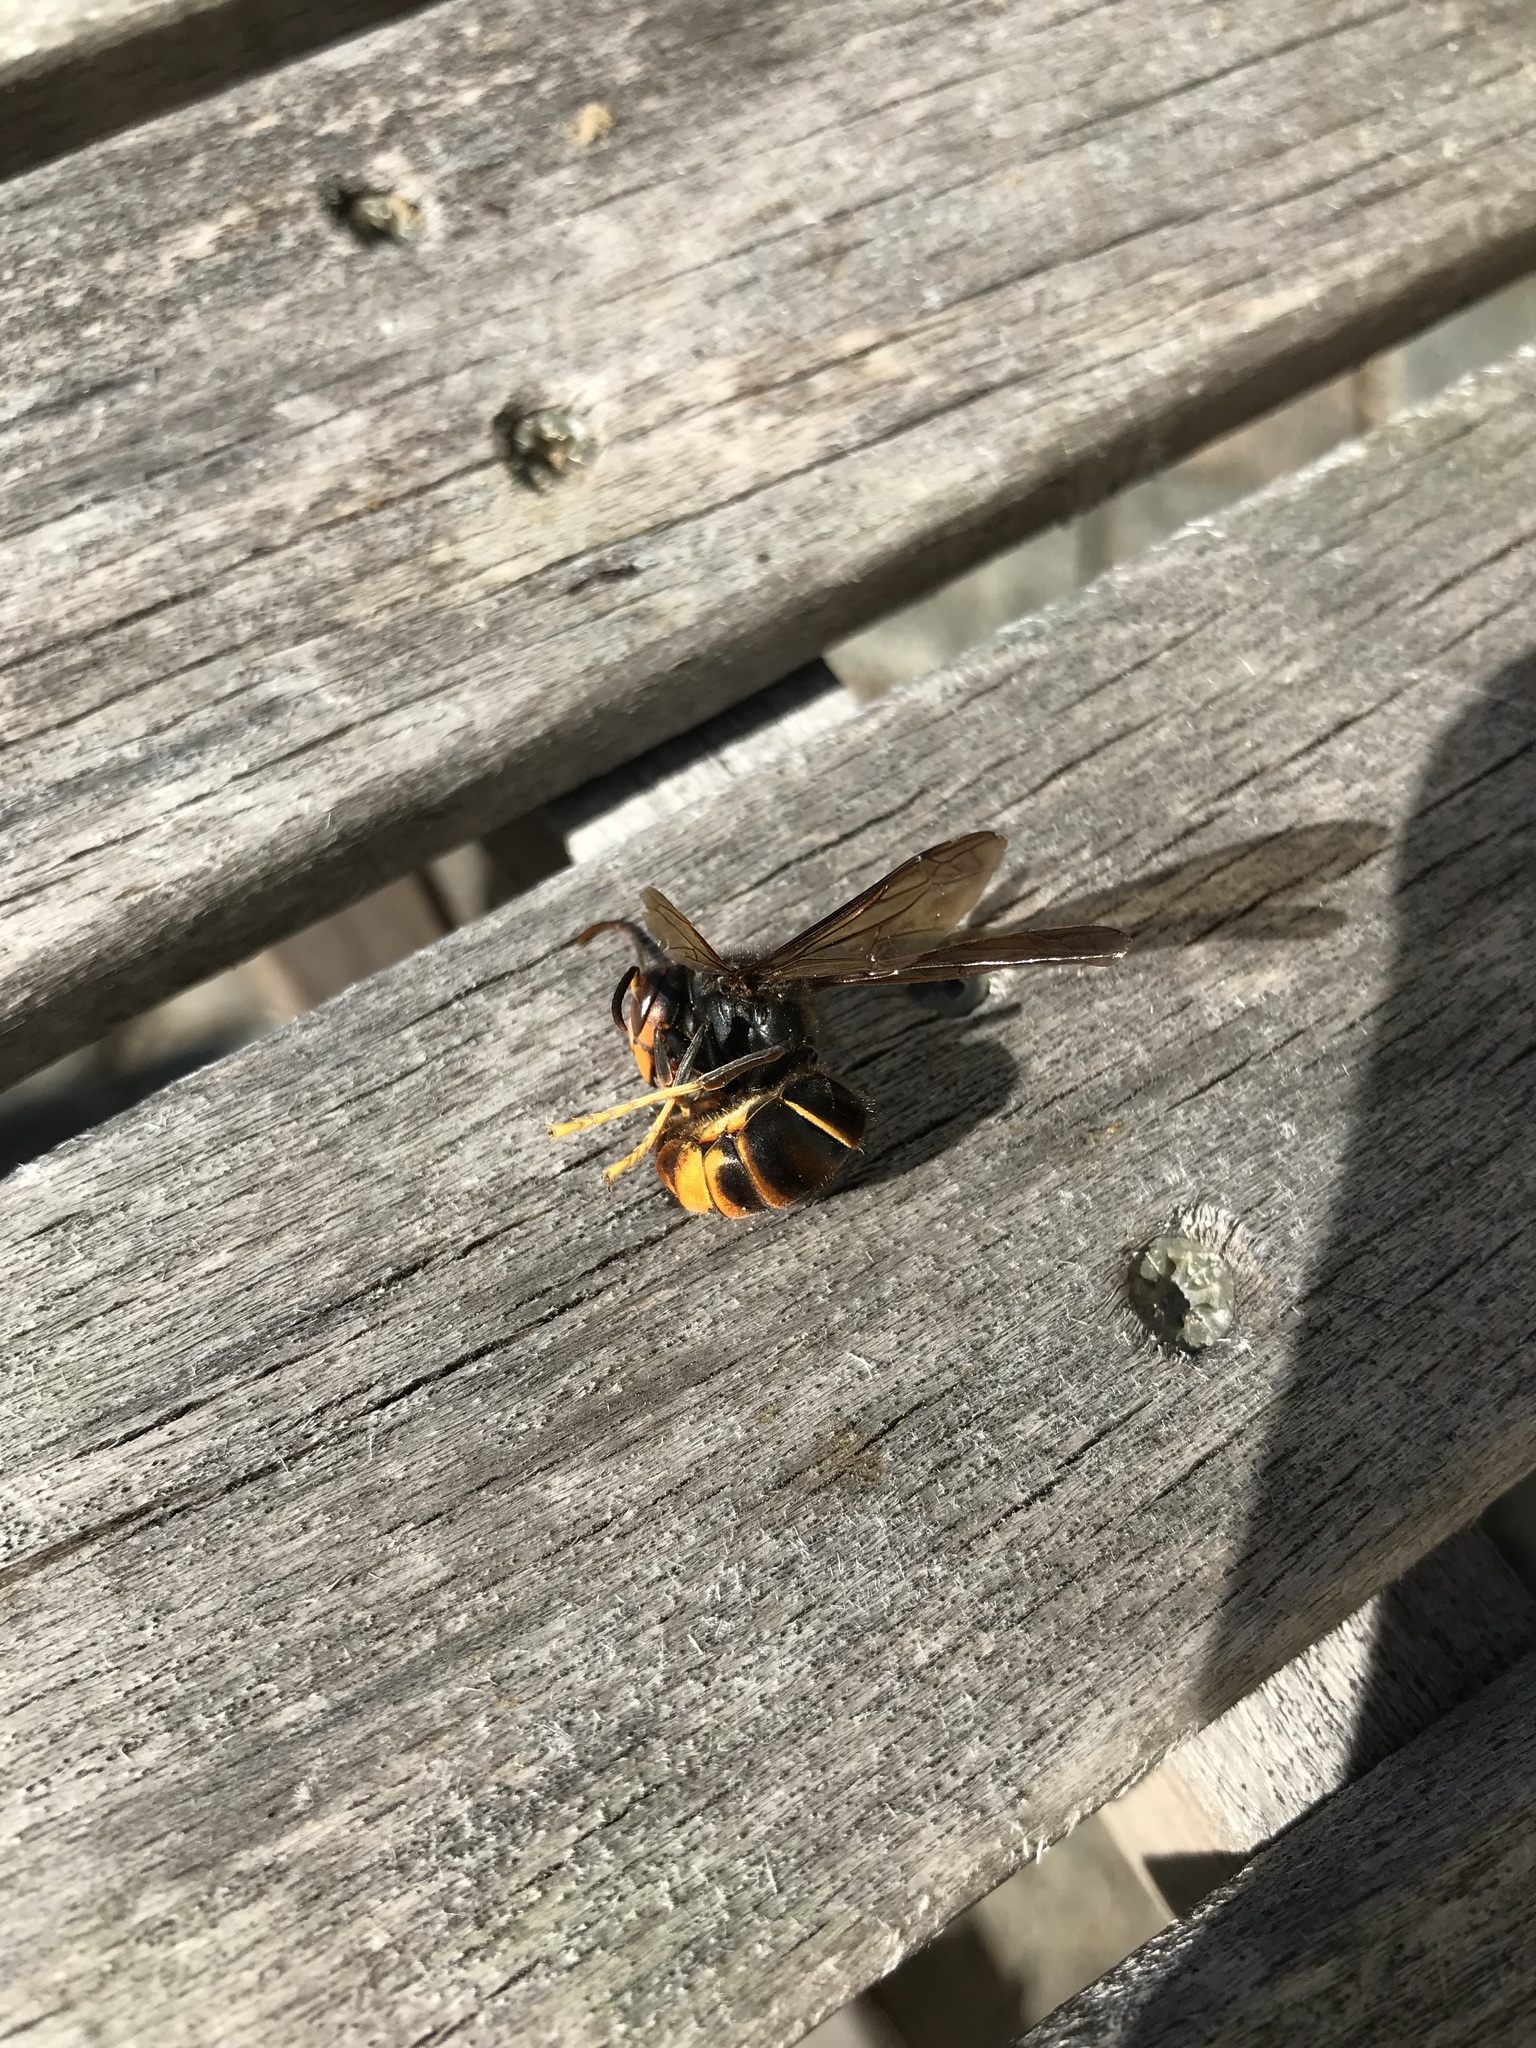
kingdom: Animalia
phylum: Arthropoda
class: Insecta
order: Hymenoptera
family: Vespidae
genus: Vespa
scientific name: Vespa velutina
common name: Asian hornet
